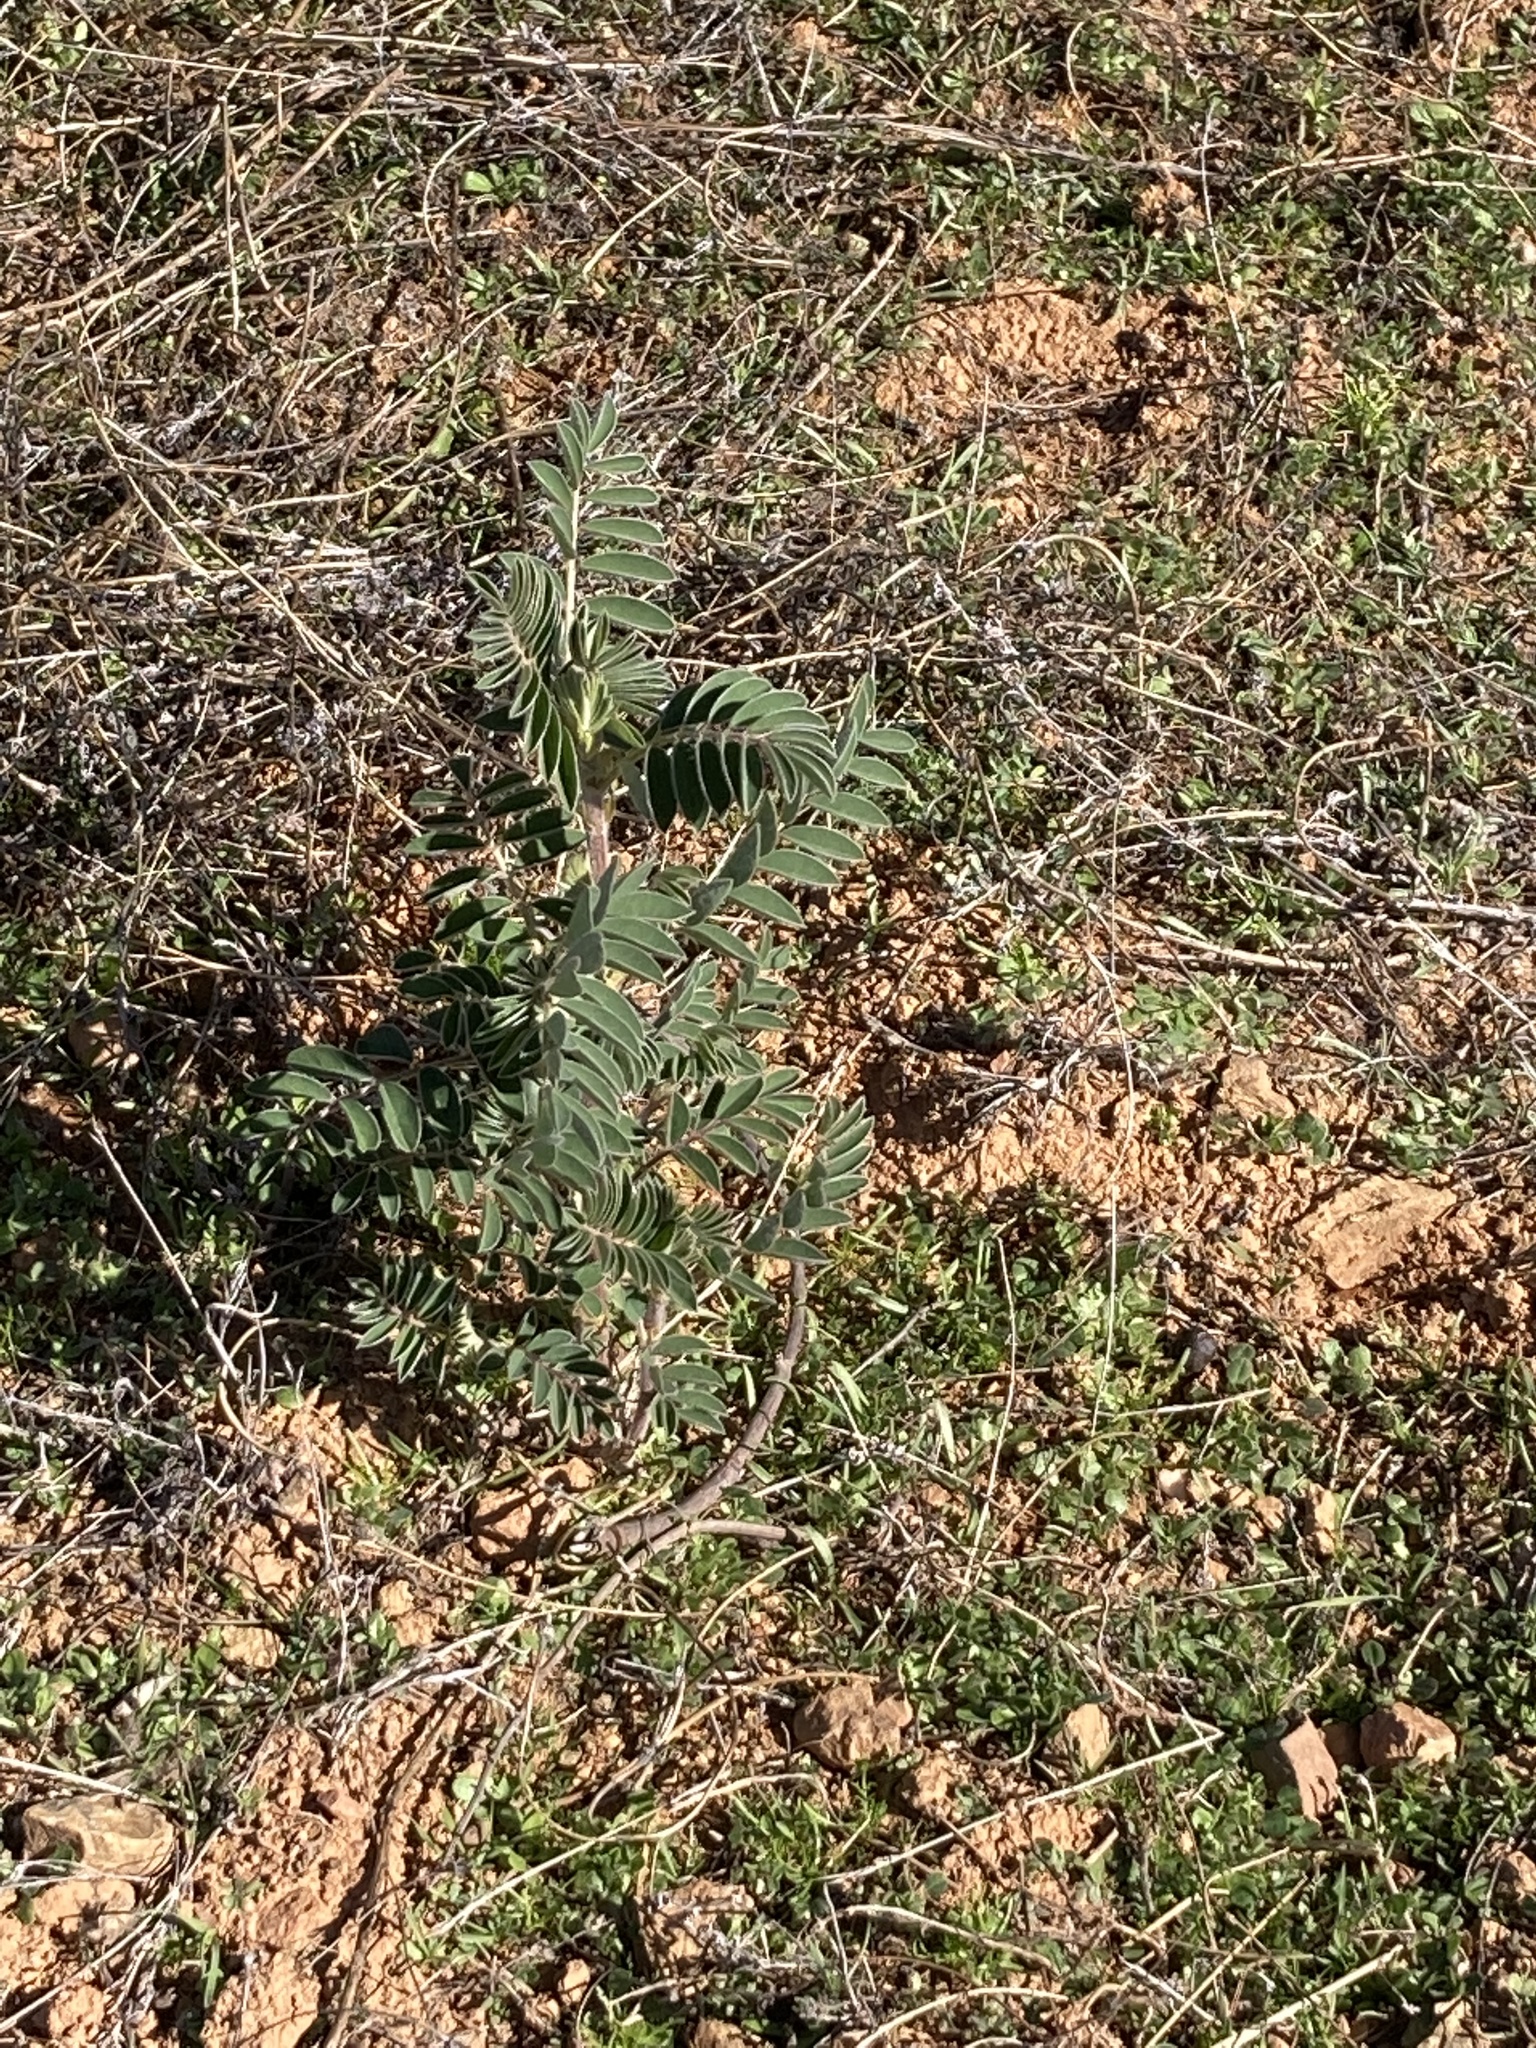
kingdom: Plantae
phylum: Tracheophyta
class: Magnoliopsida
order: Fabales
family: Fabaceae
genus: Erophaca
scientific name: Erophaca baetica
